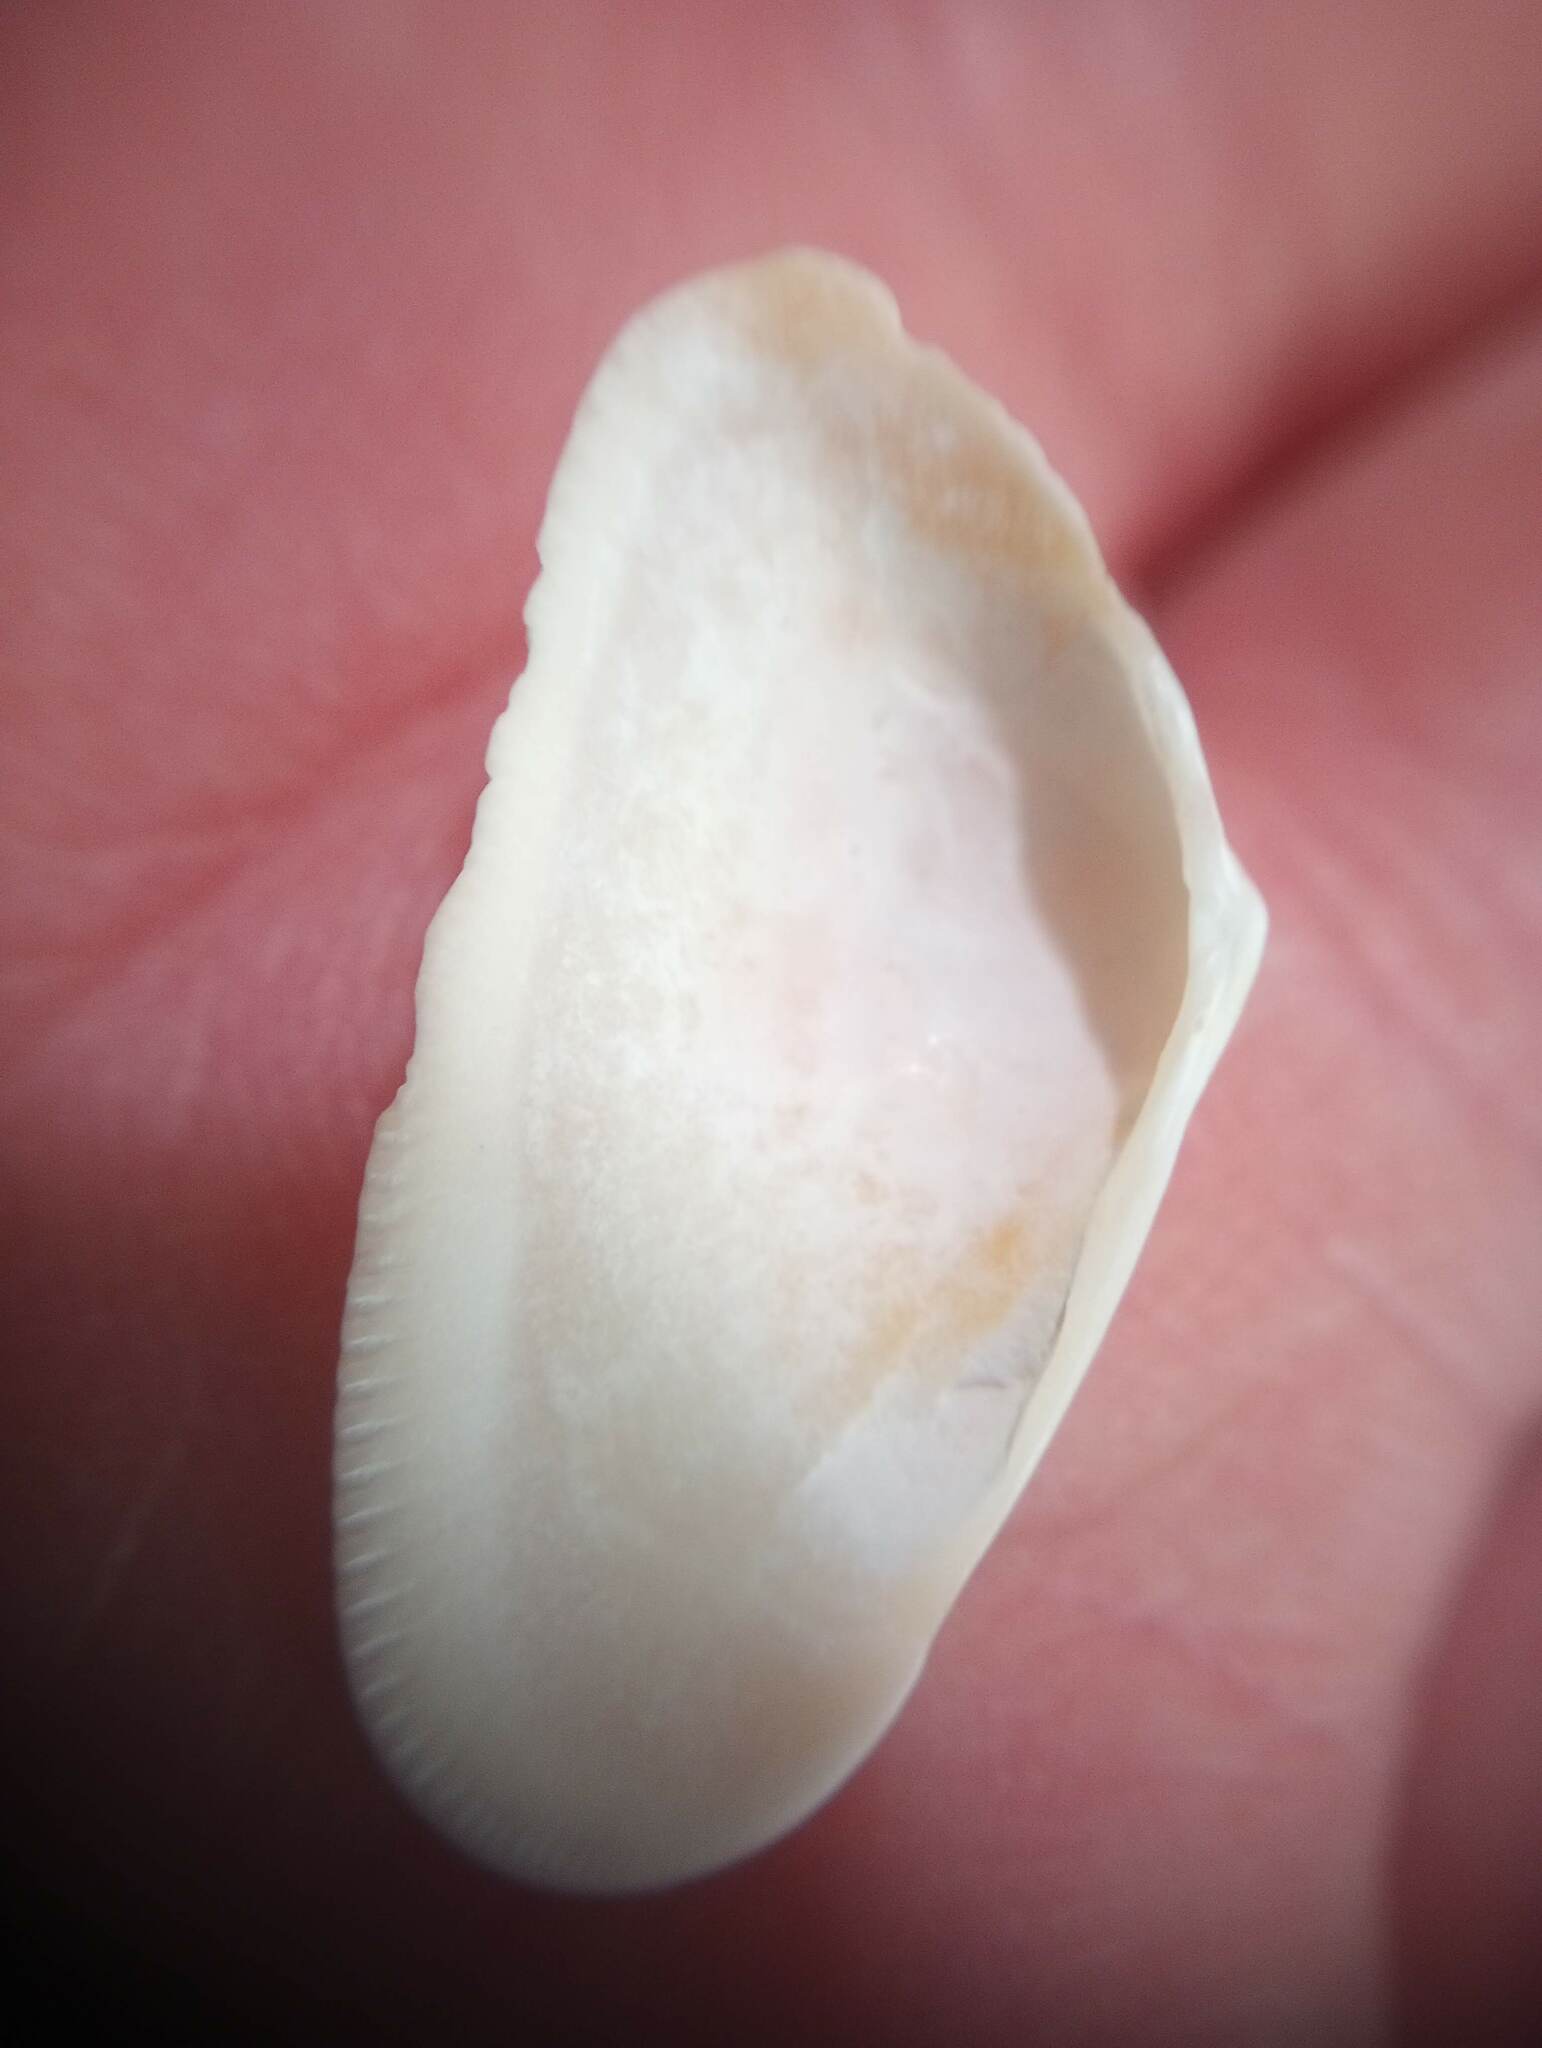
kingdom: Animalia
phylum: Mollusca
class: Bivalvia
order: Cardiida
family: Donacidae
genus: Donax
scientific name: Donax variabilis
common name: Butterfly shell
